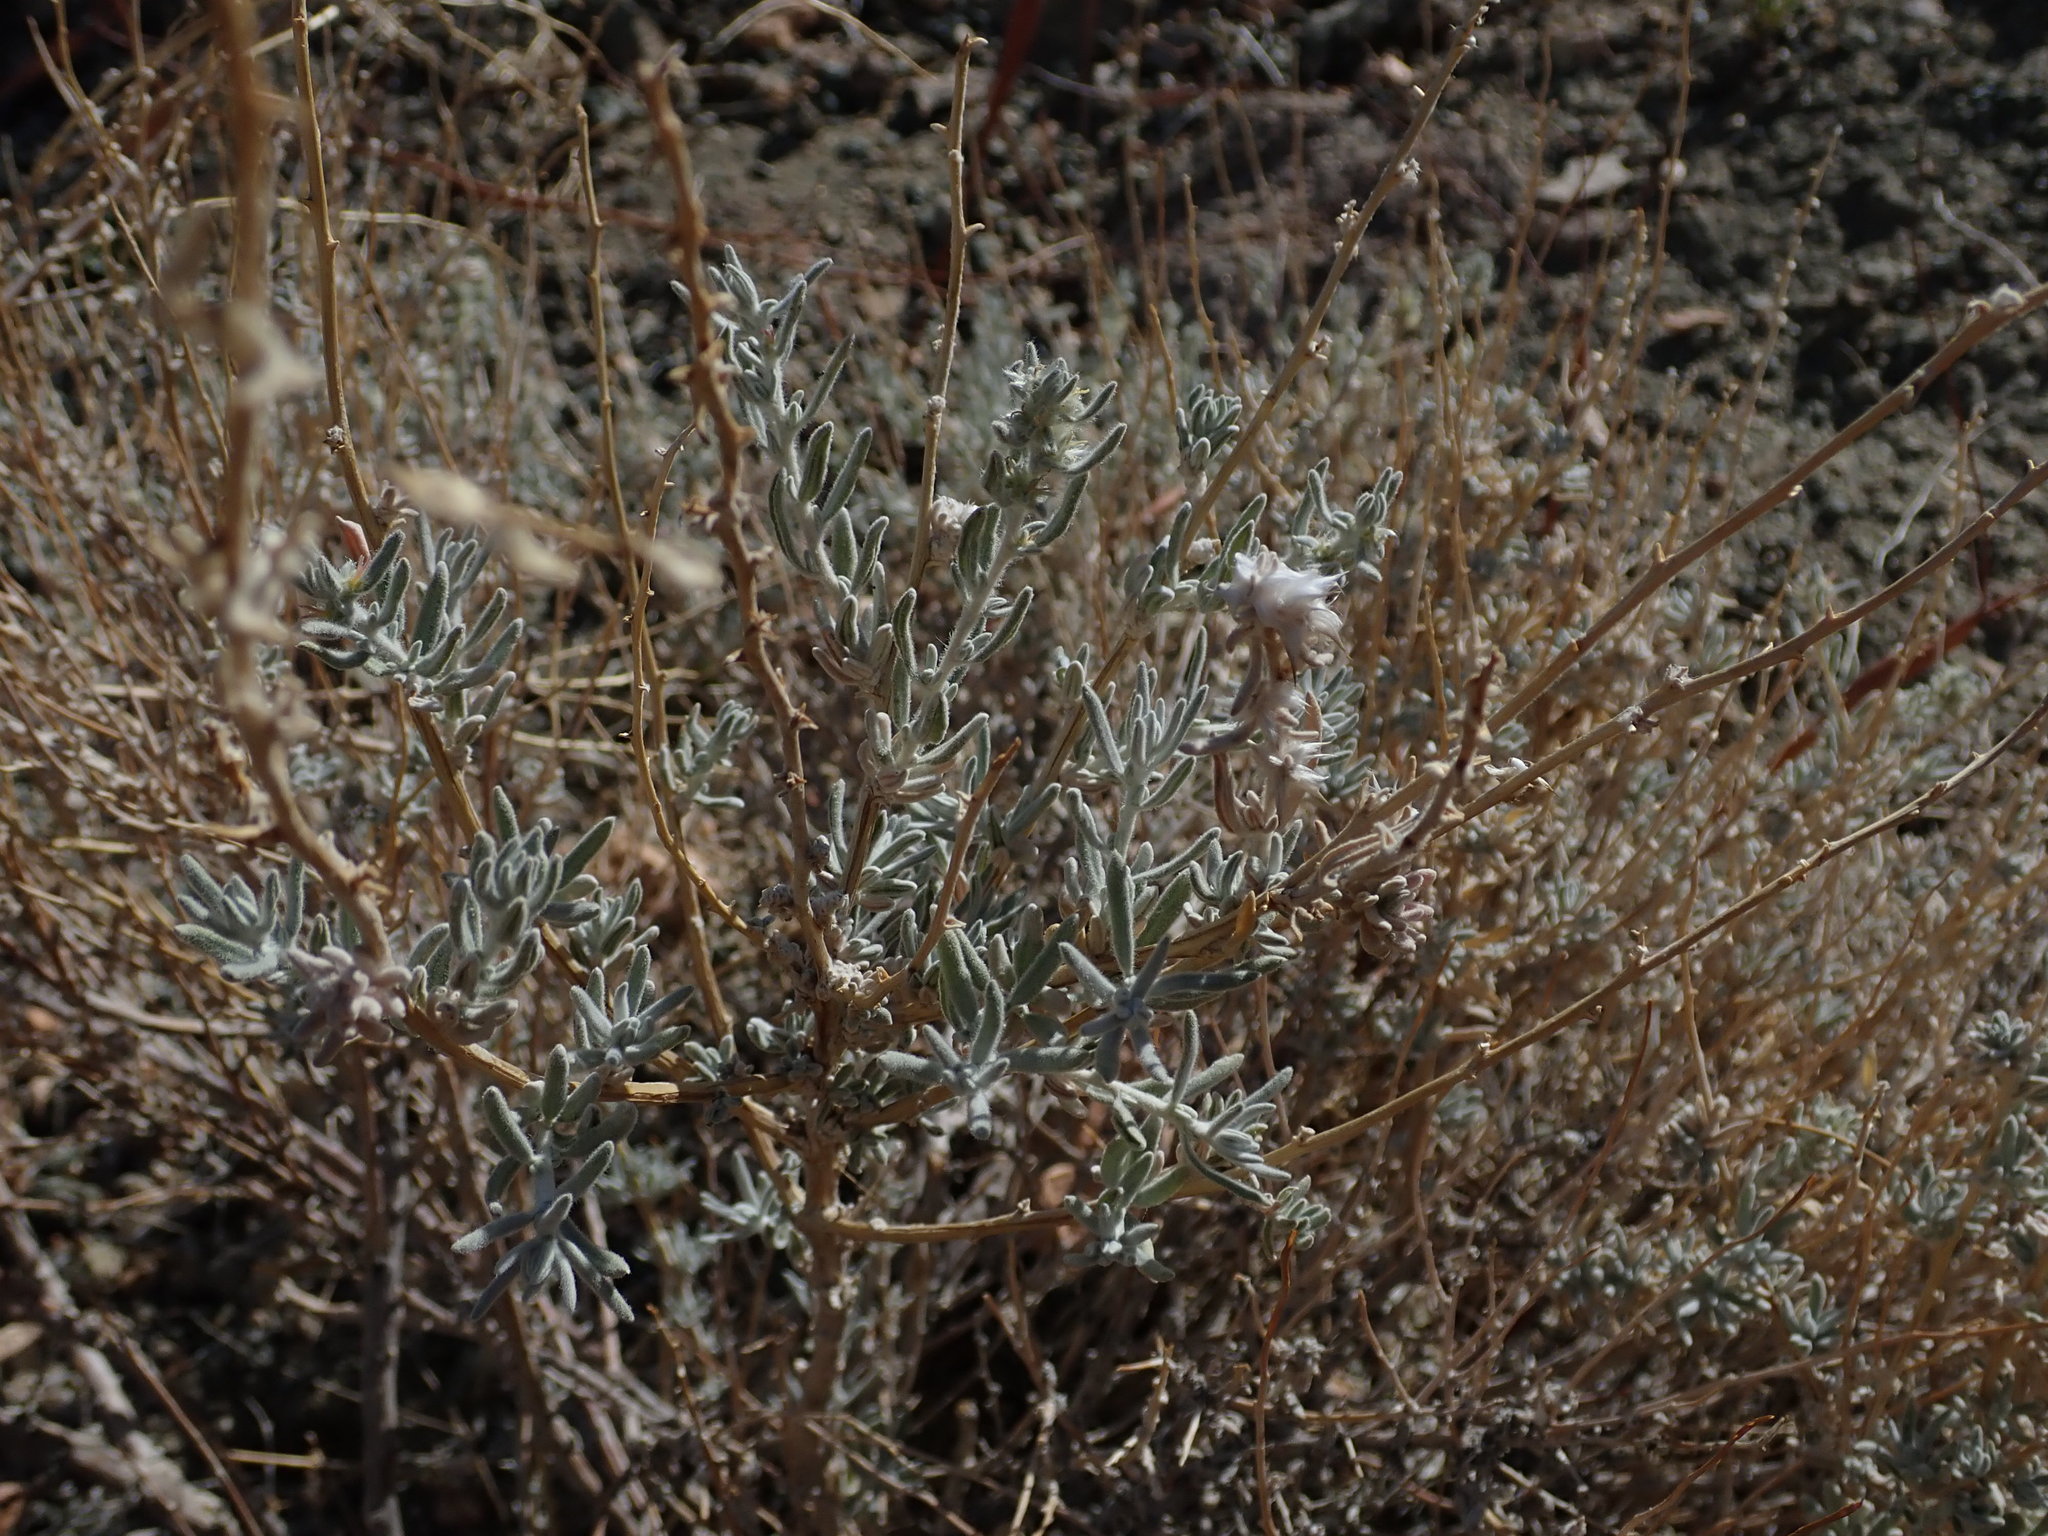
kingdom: Plantae
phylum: Tracheophyta
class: Magnoliopsida
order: Caryophyllales
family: Amaranthaceae
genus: Krascheninnikovia
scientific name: Krascheninnikovia lanata
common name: Winterfat
